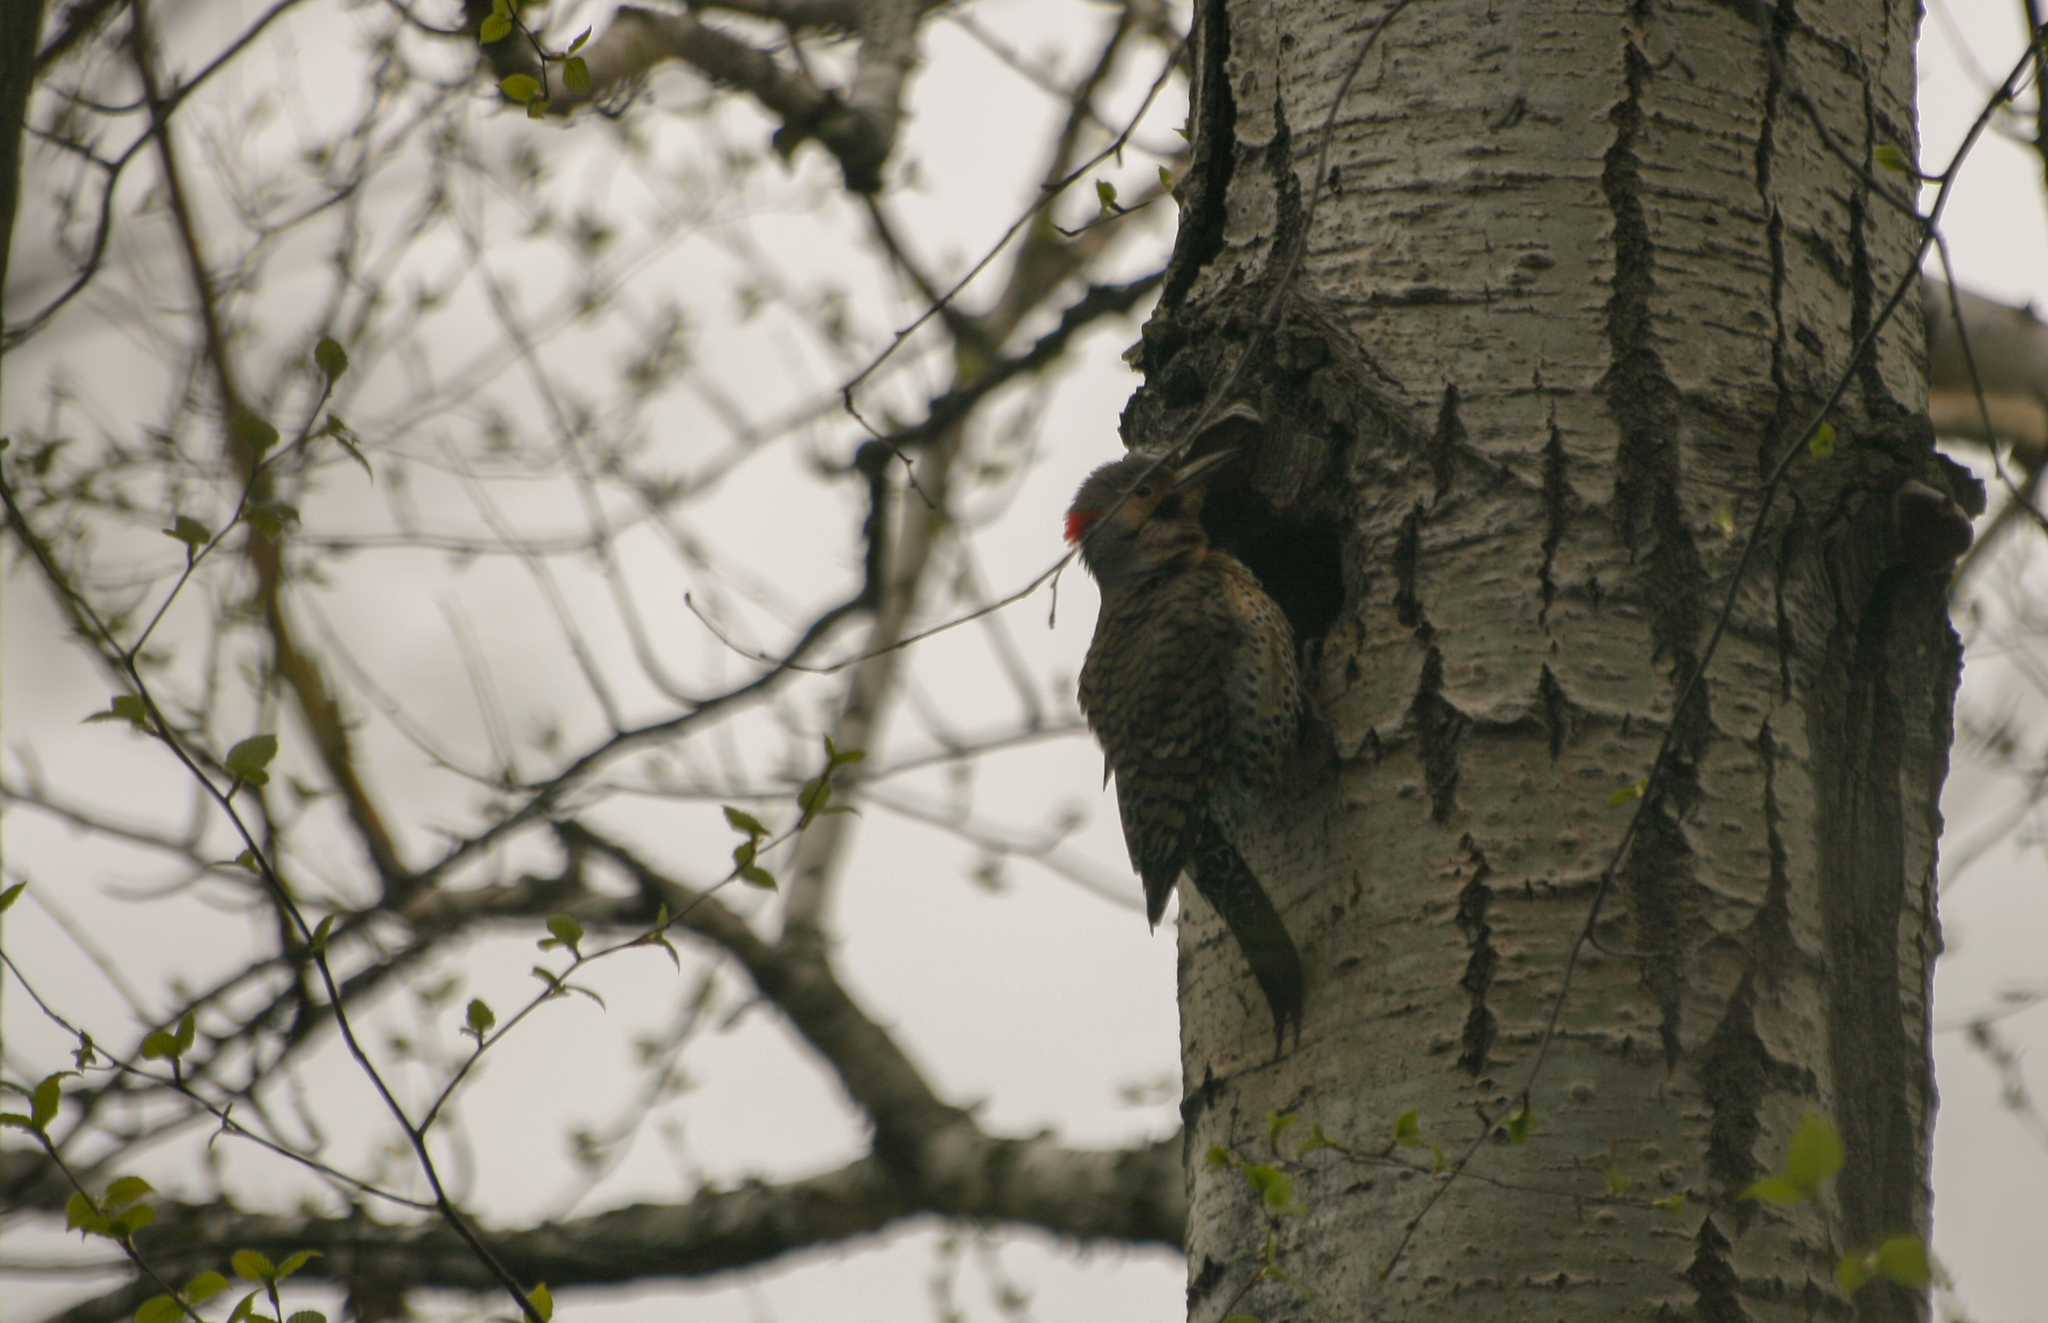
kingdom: Animalia
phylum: Chordata
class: Aves
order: Piciformes
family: Picidae
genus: Colaptes
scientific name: Colaptes auratus
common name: Northern flicker
